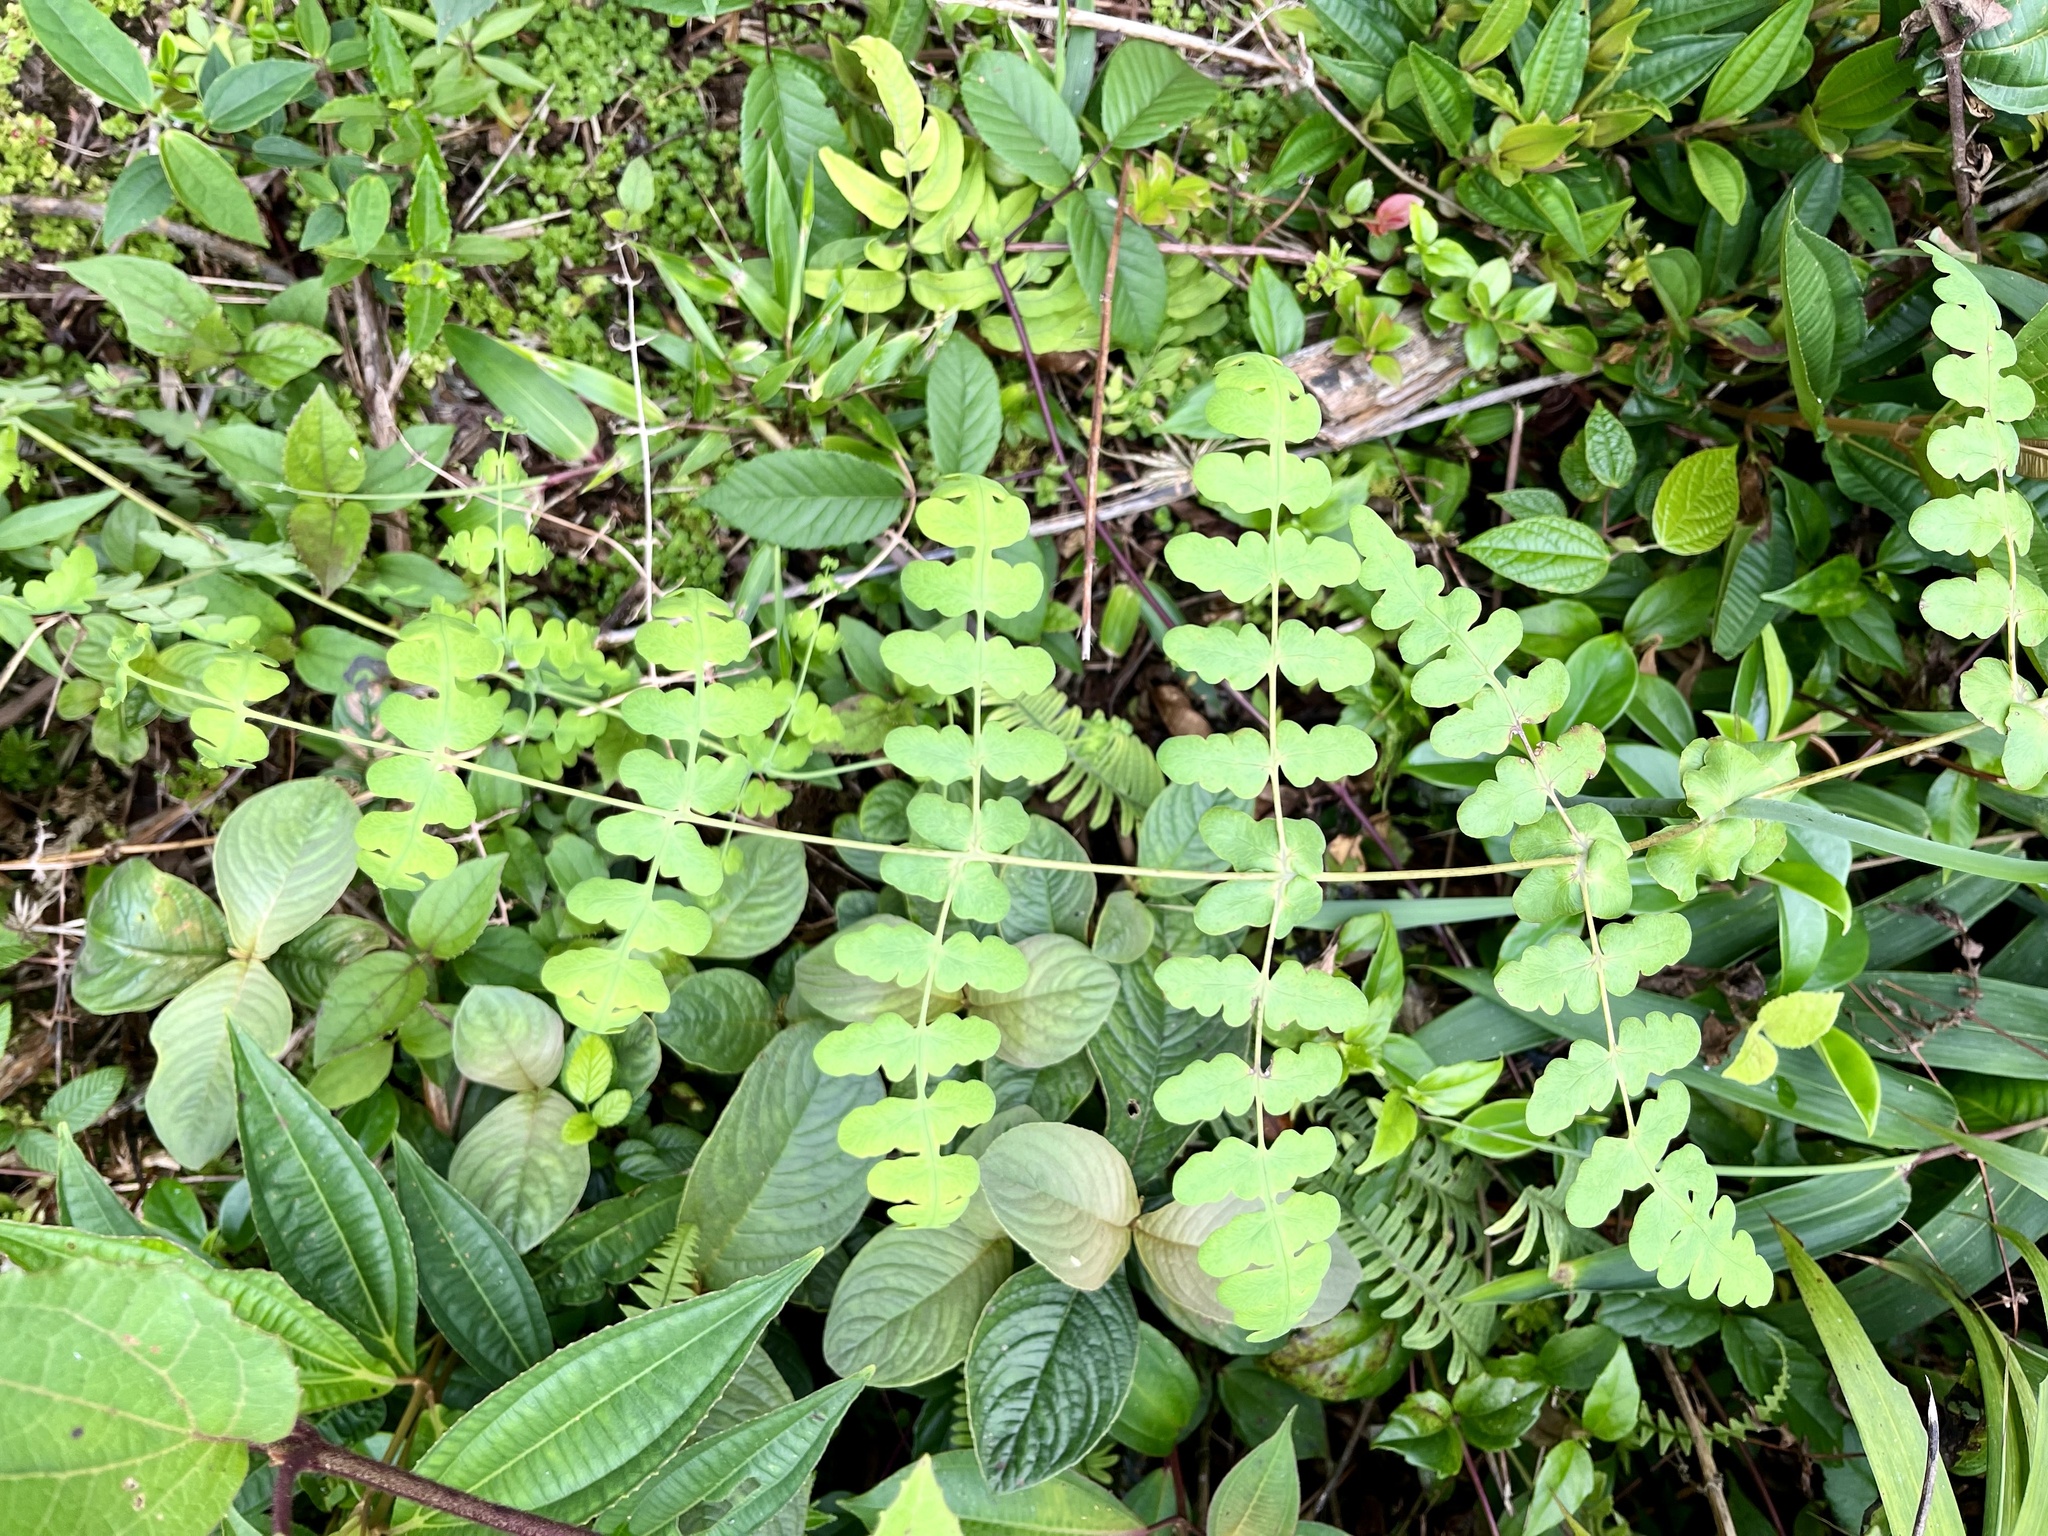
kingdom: Plantae
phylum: Tracheophyta
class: Polypodiopsida
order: Polypodiales
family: Dennstaedtiaceae
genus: Histiopteris
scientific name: Histiopteris incisa
